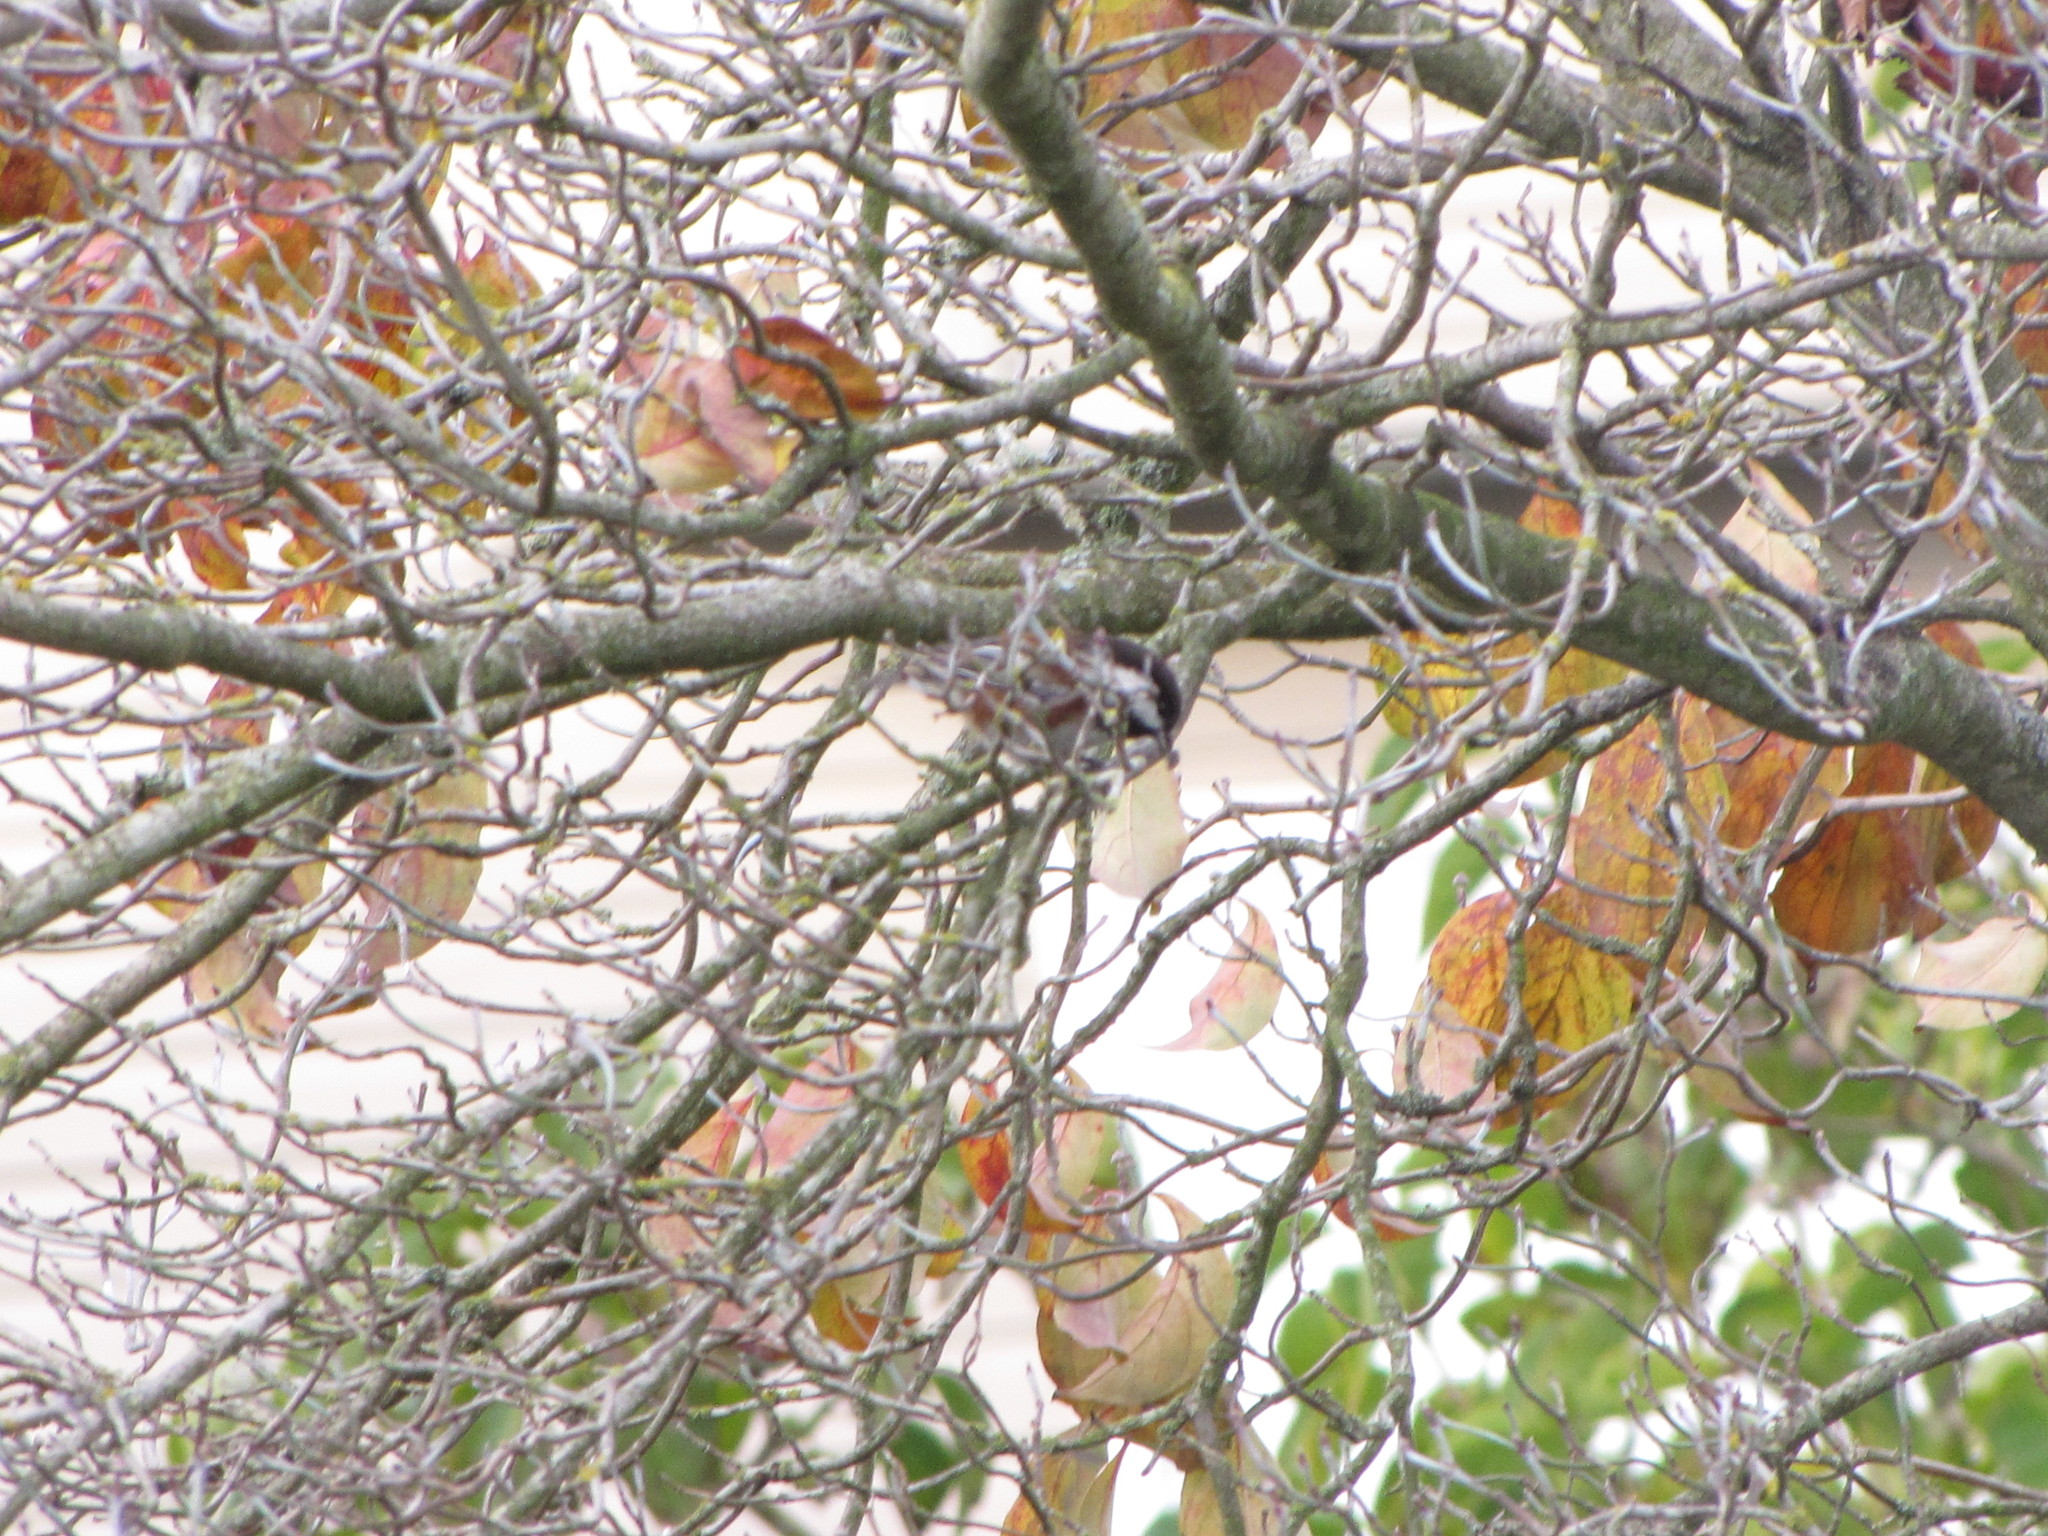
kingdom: Animalia
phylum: Chordata
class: Aves
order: Passeriformes
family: Paridae
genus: Poecile
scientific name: Poecile rufescens
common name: Chestnut-backed chickadee
